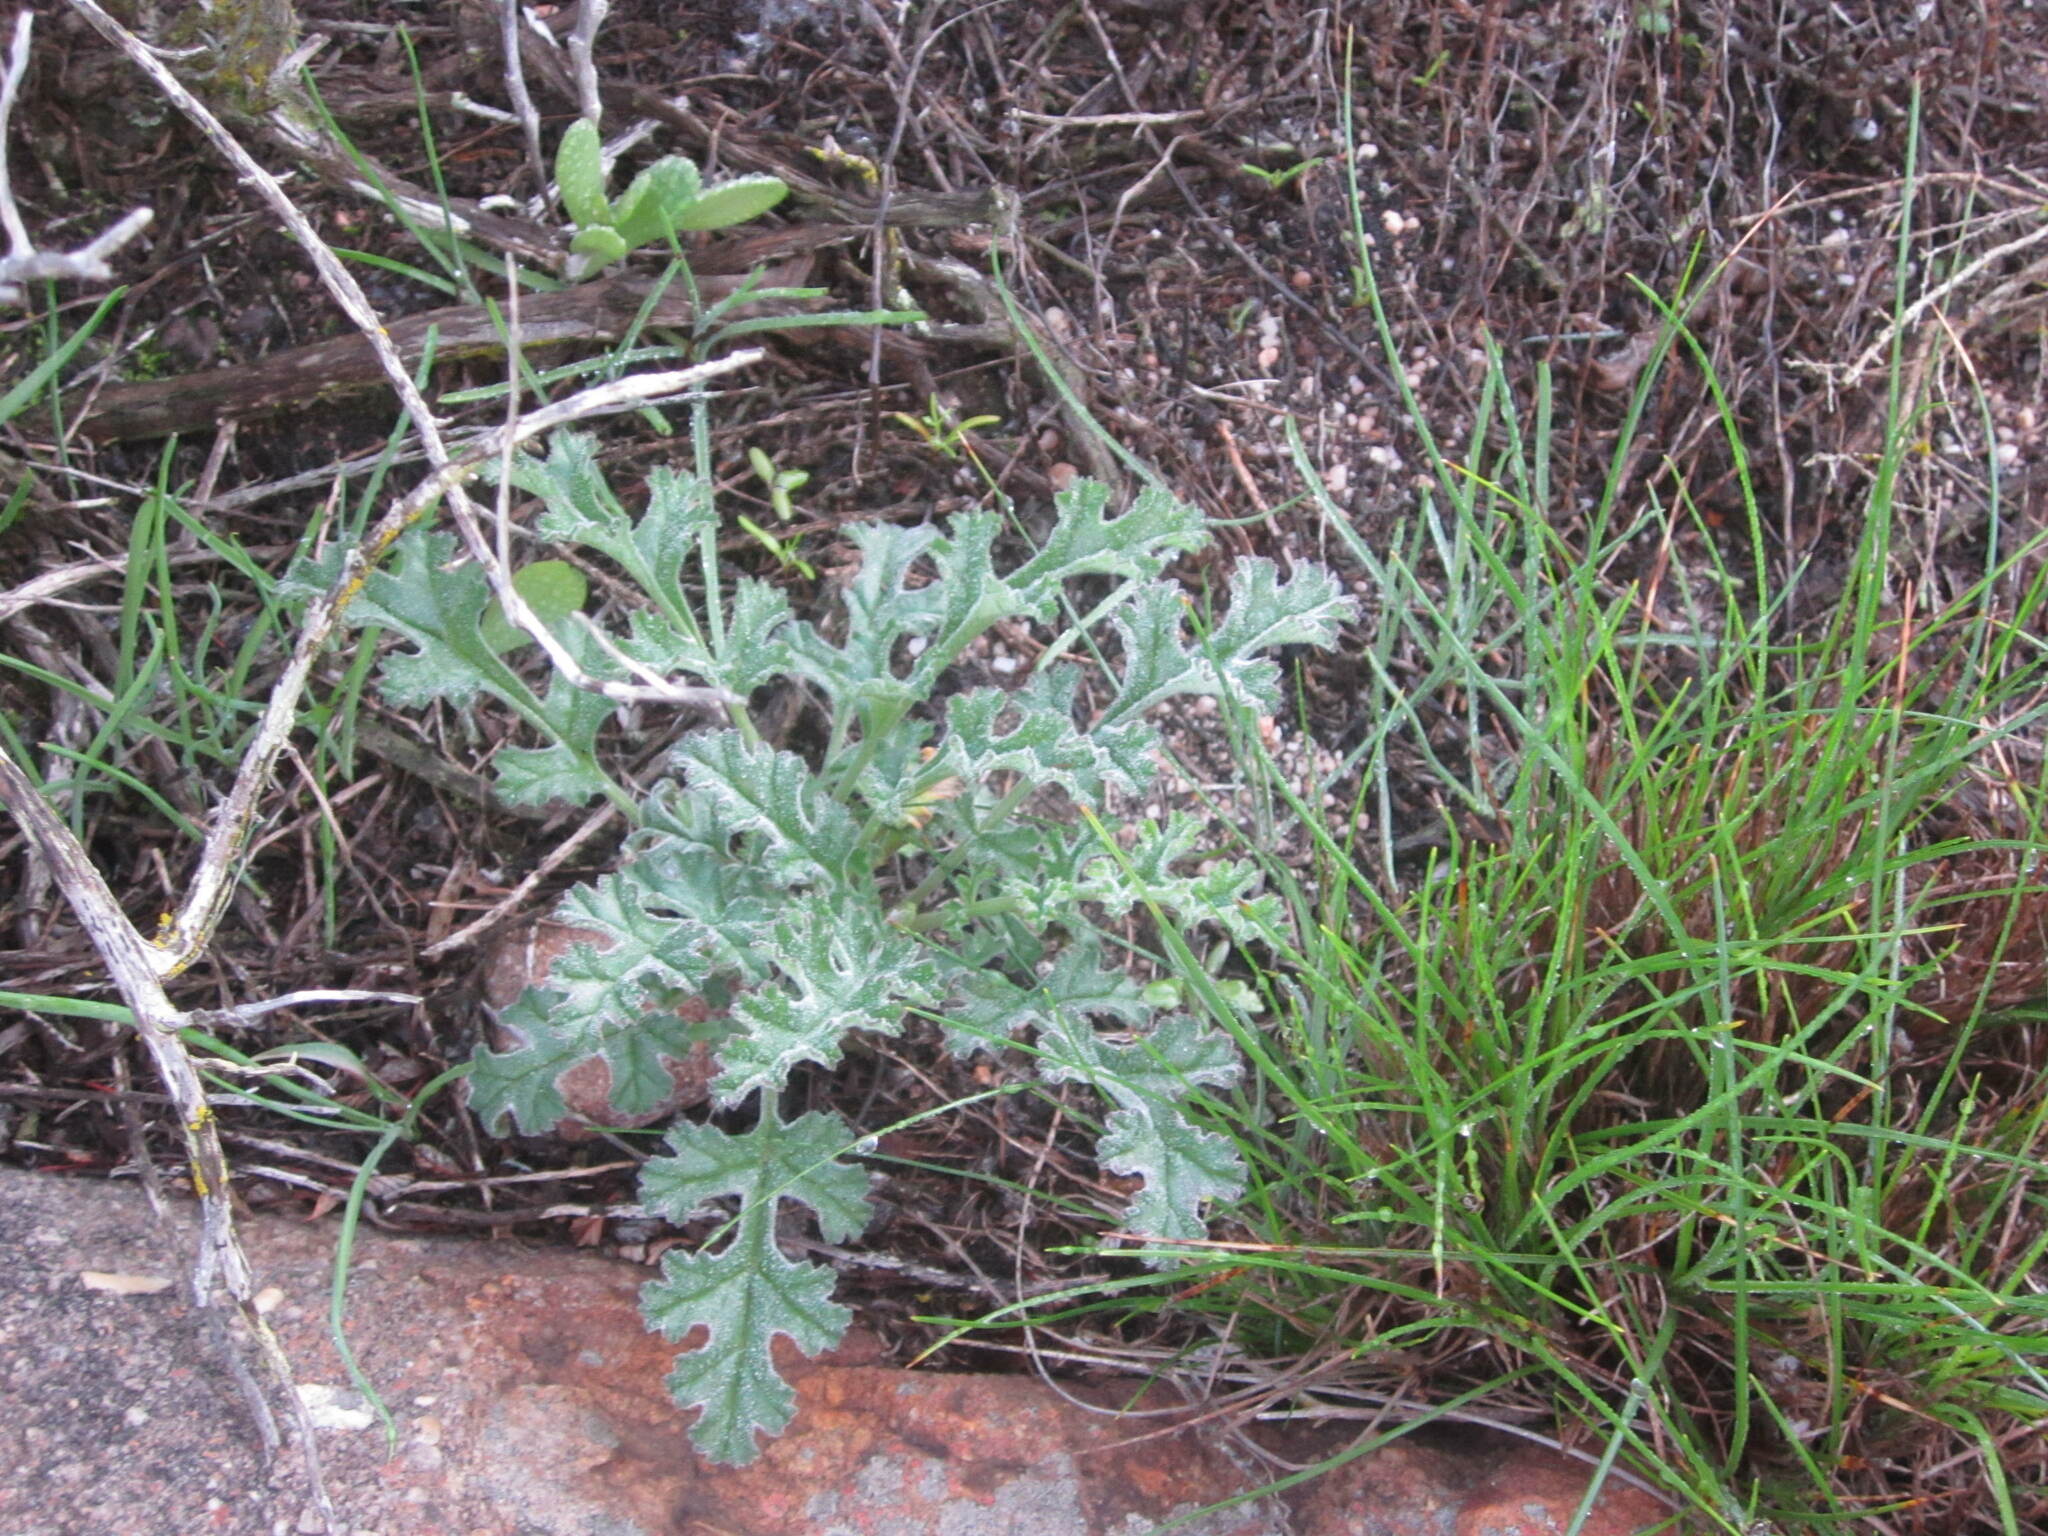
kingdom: Plantae
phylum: Tracheophyta
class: Magnoliopsida
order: Geraniales
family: Geraniaceae
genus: Pelargonium
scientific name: Pelargonium carnosum
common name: Fleshy-stalk pelargonium
